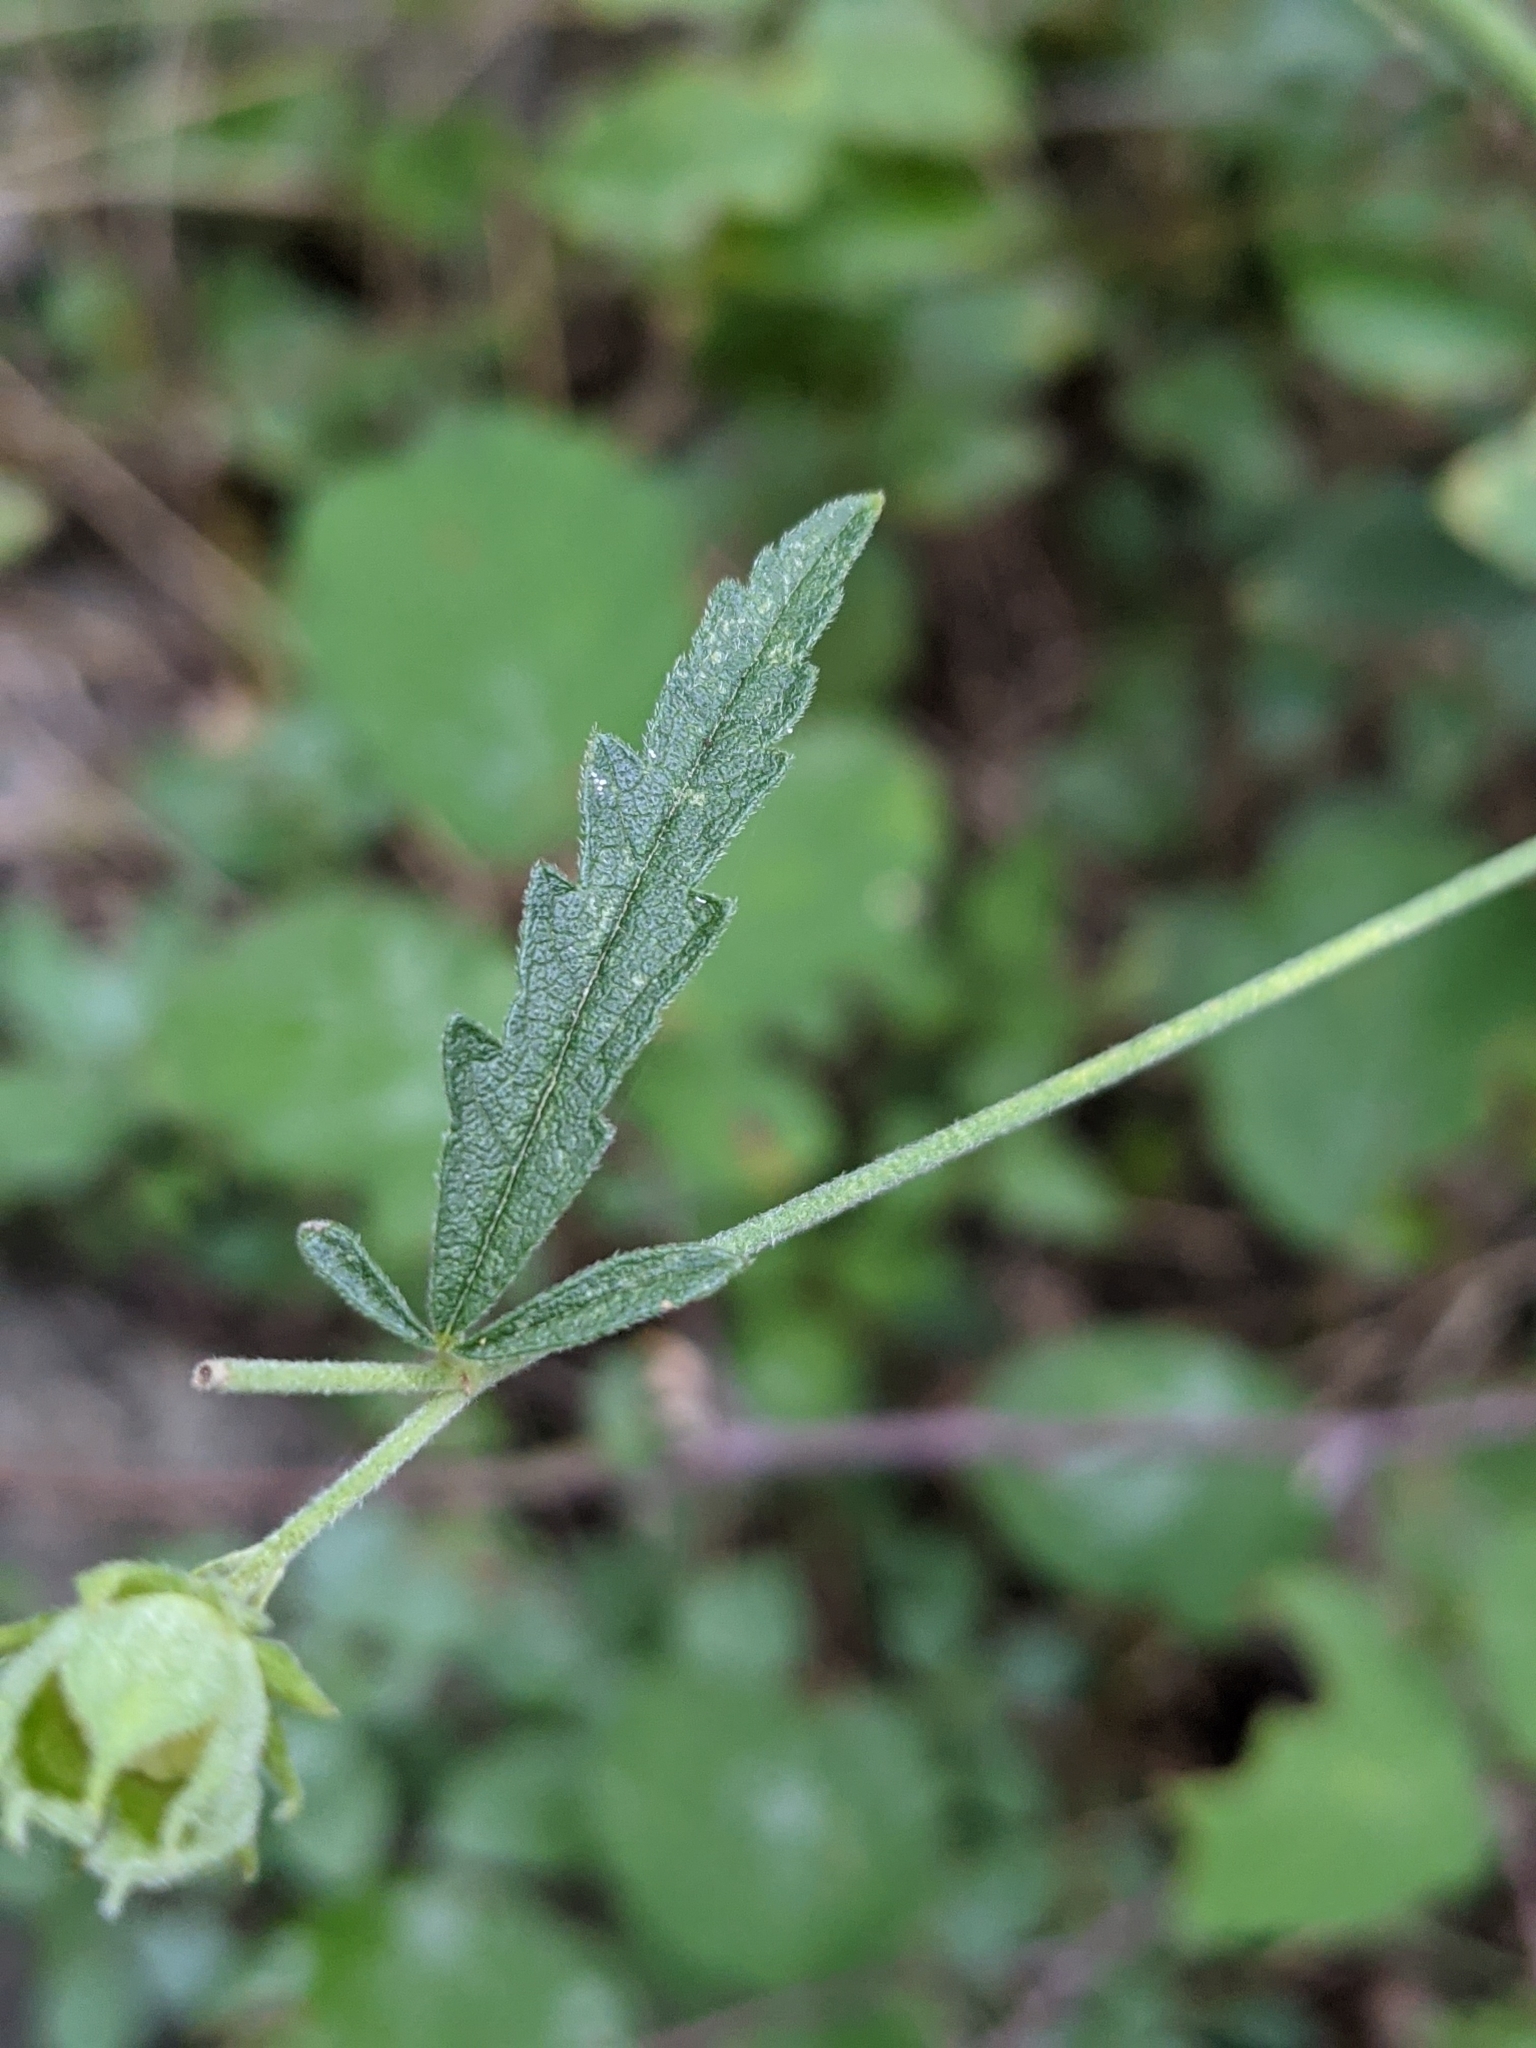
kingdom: Plantae
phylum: Tracheophyta
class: Magnoliopsida
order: Malvales
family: Malvaceae
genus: Althaea
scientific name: Althaea cannabina
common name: Palm-leaf marshmallow
